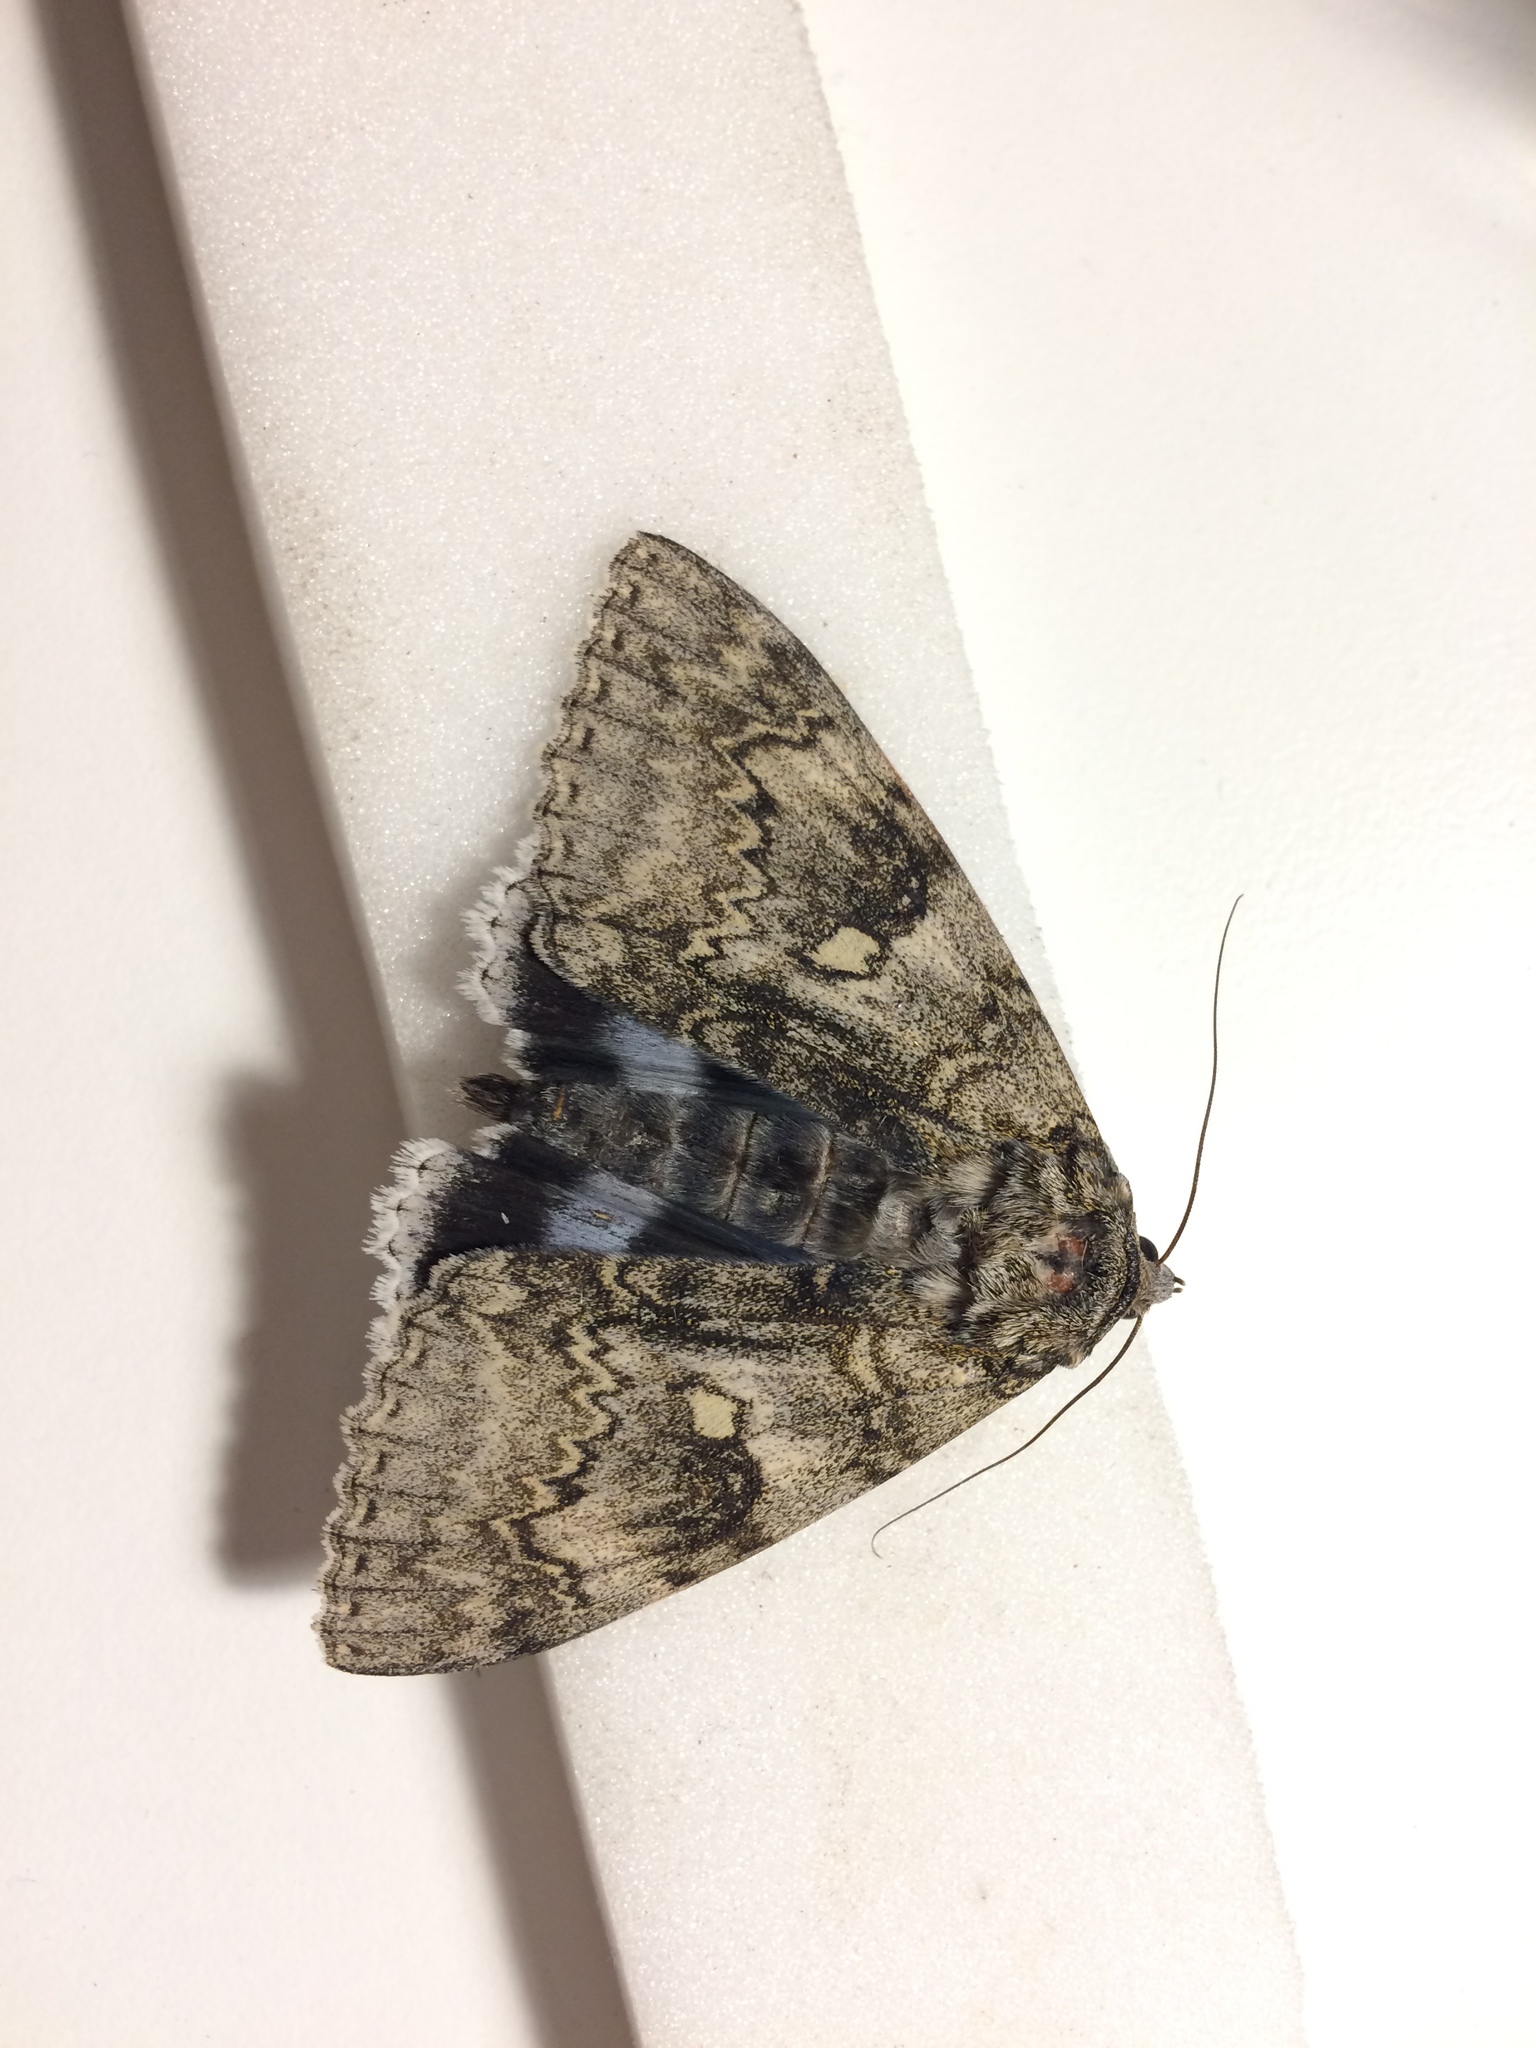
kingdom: Animalia
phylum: Arthropoda
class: Insecta
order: Lepidoptera
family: Erebidae
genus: Catocala
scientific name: Catocala fraxini
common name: Clifden nonpareil
